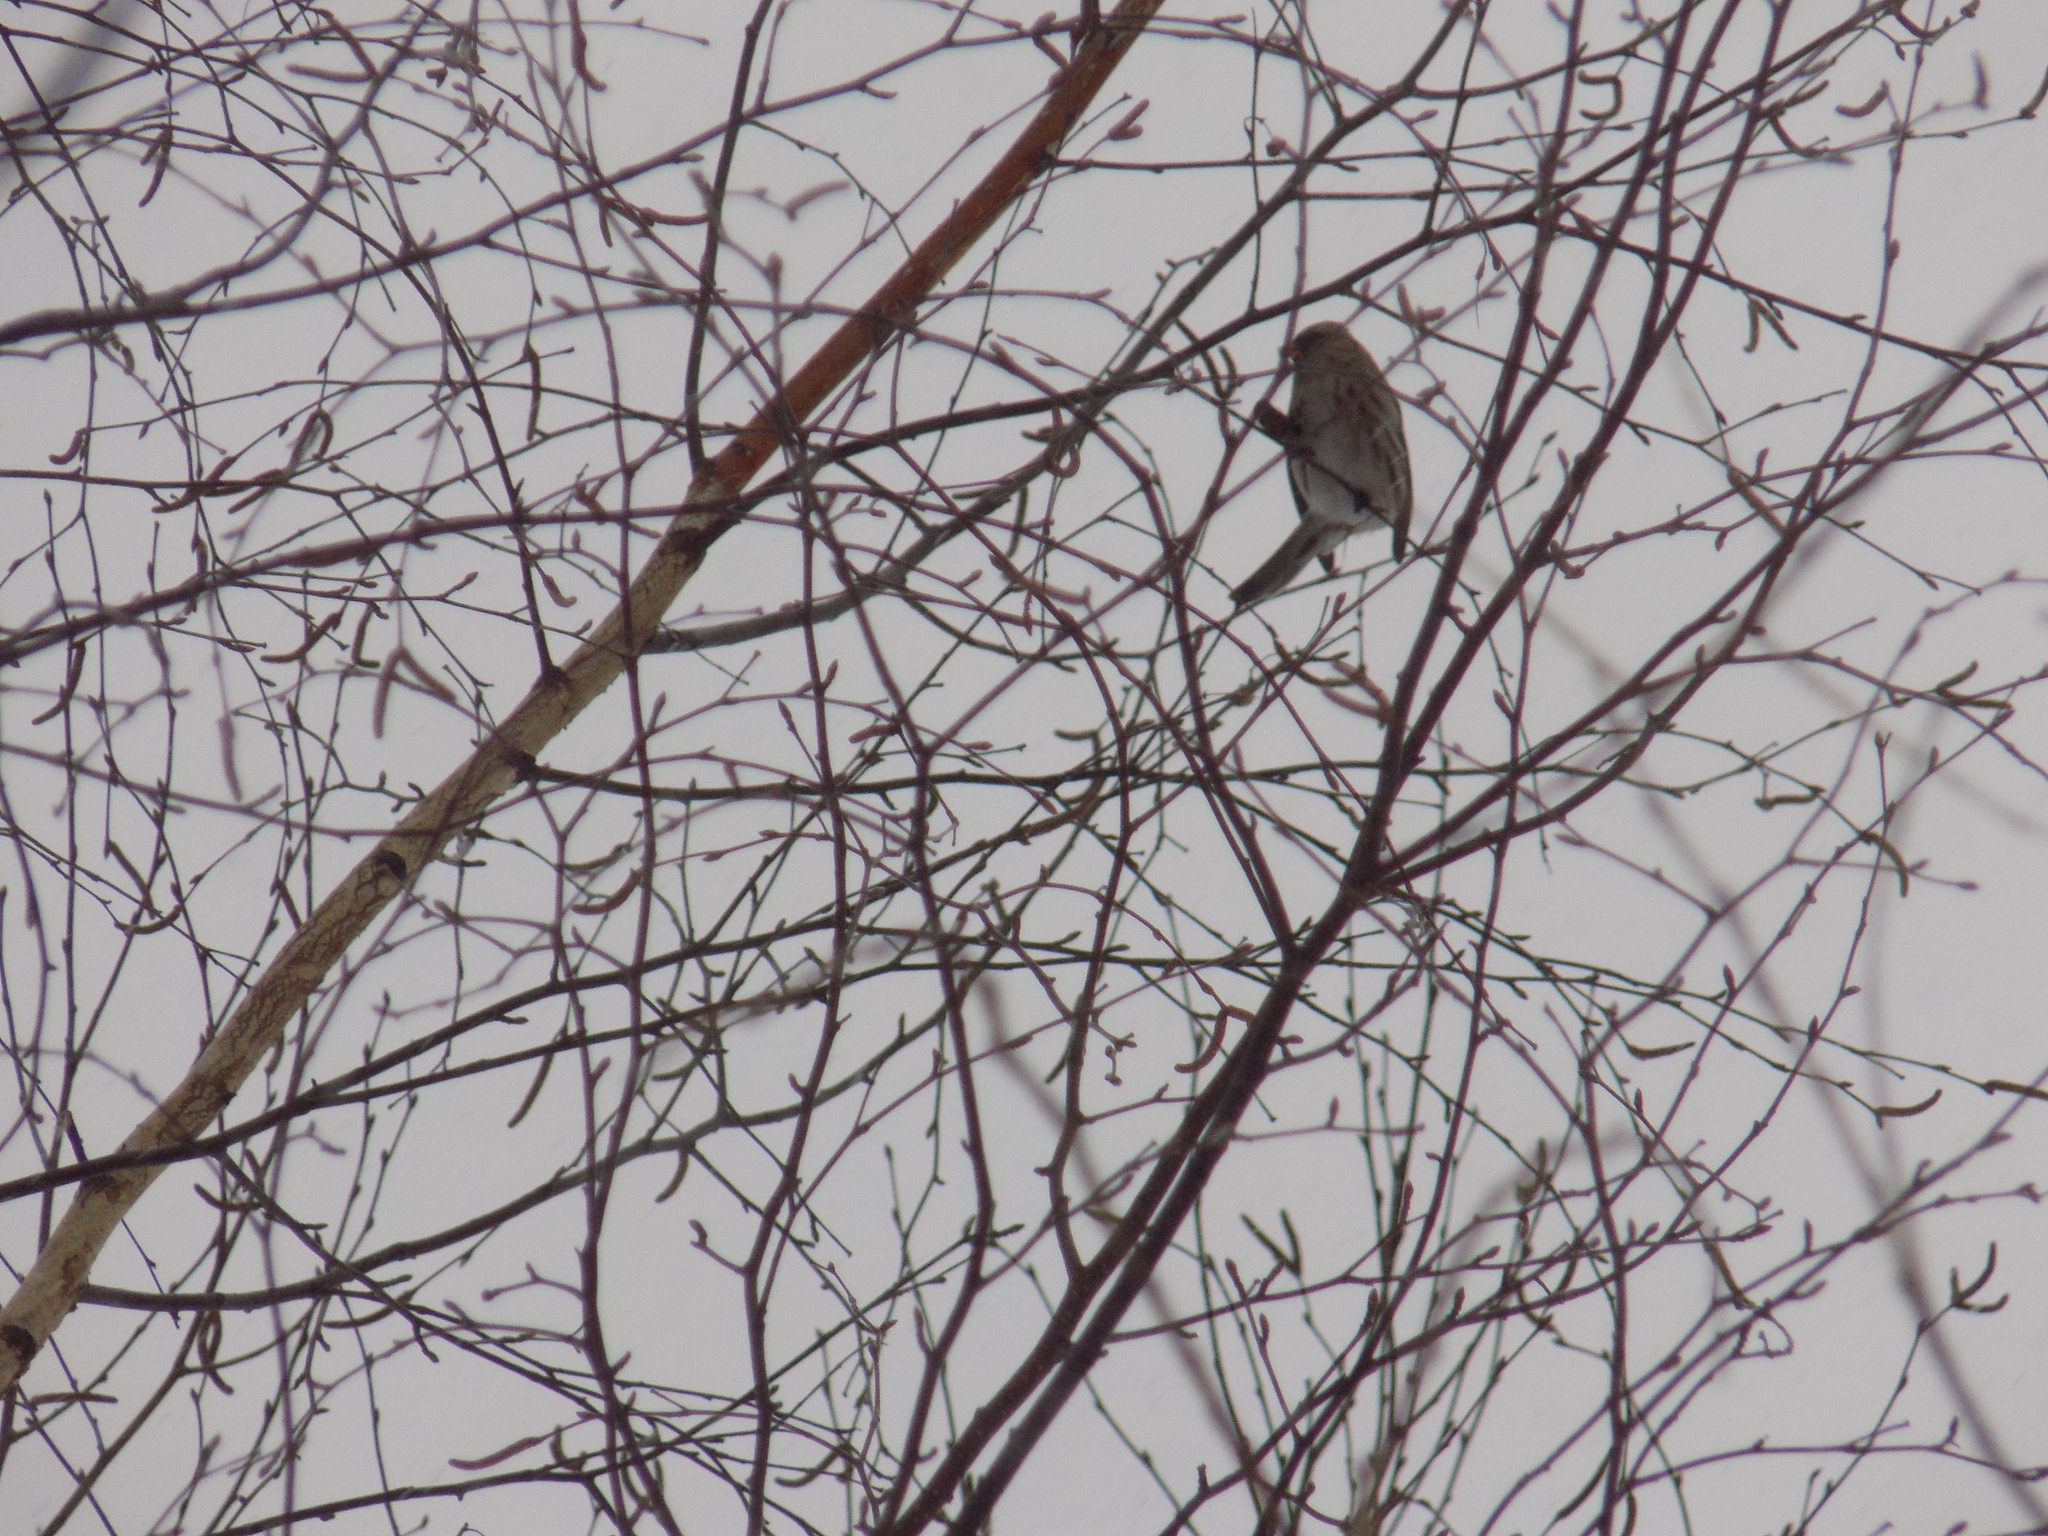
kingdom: Animalia
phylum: Chordata
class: Aves
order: Passeriformes
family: Fringillidae
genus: Acanthis
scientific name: Acanthis flammea
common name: Common redpoll
